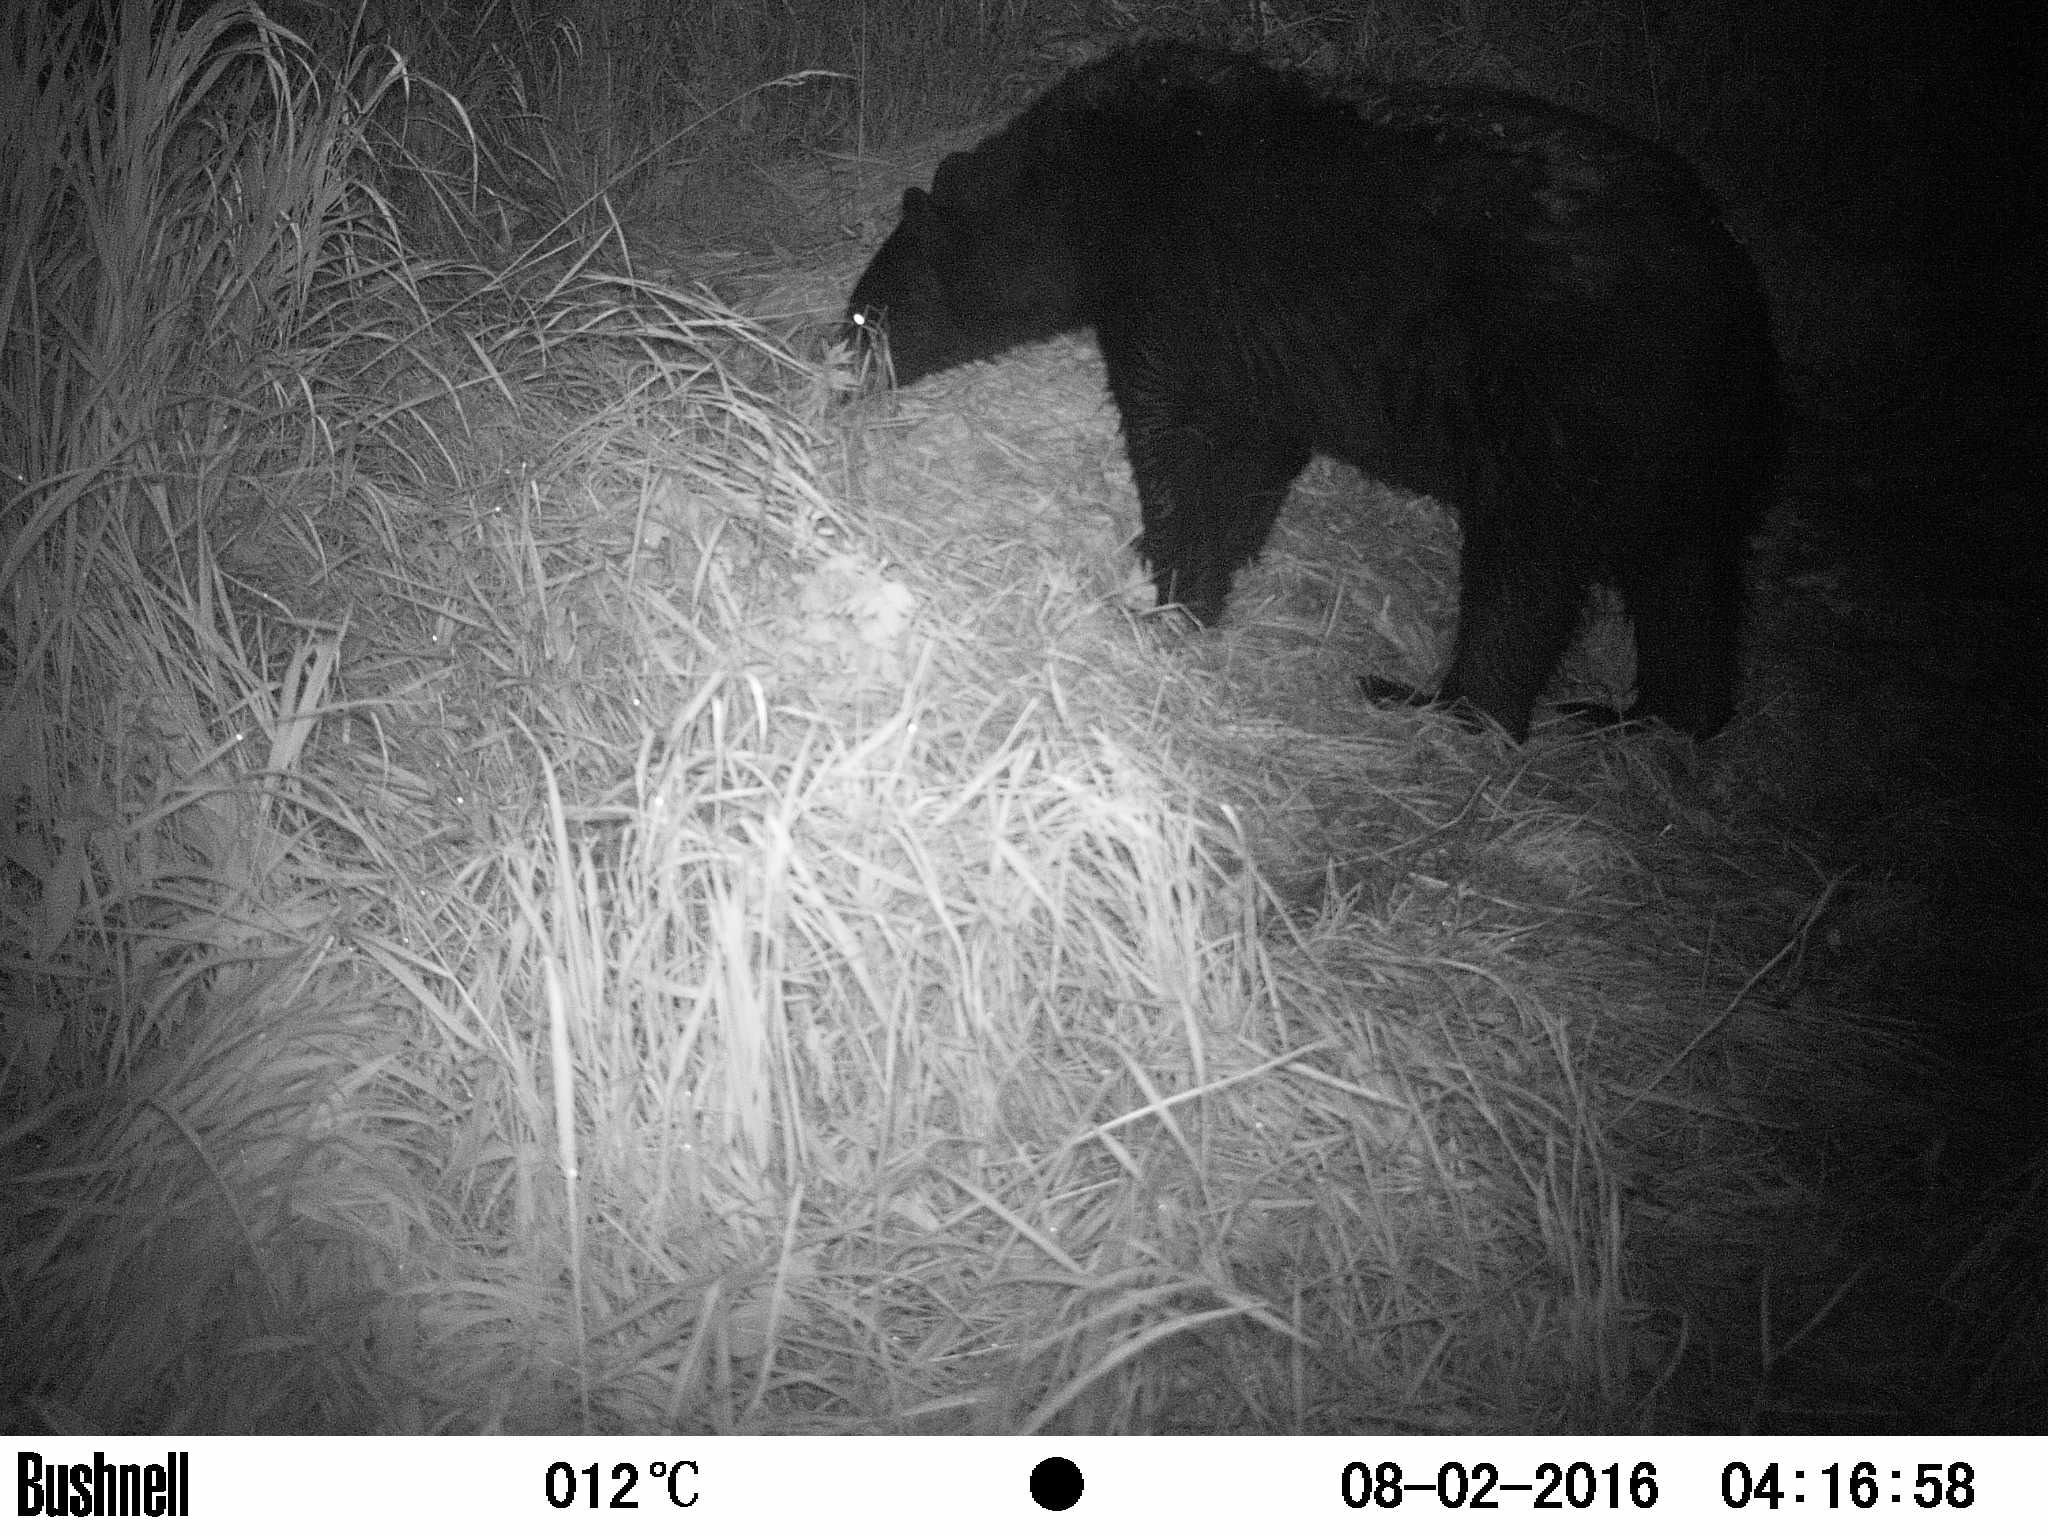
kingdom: Animalia
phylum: Chordata
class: Mammalia
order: Carnivora
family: Ursidae
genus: Ursus
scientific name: Ursus americanus
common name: American black bear
